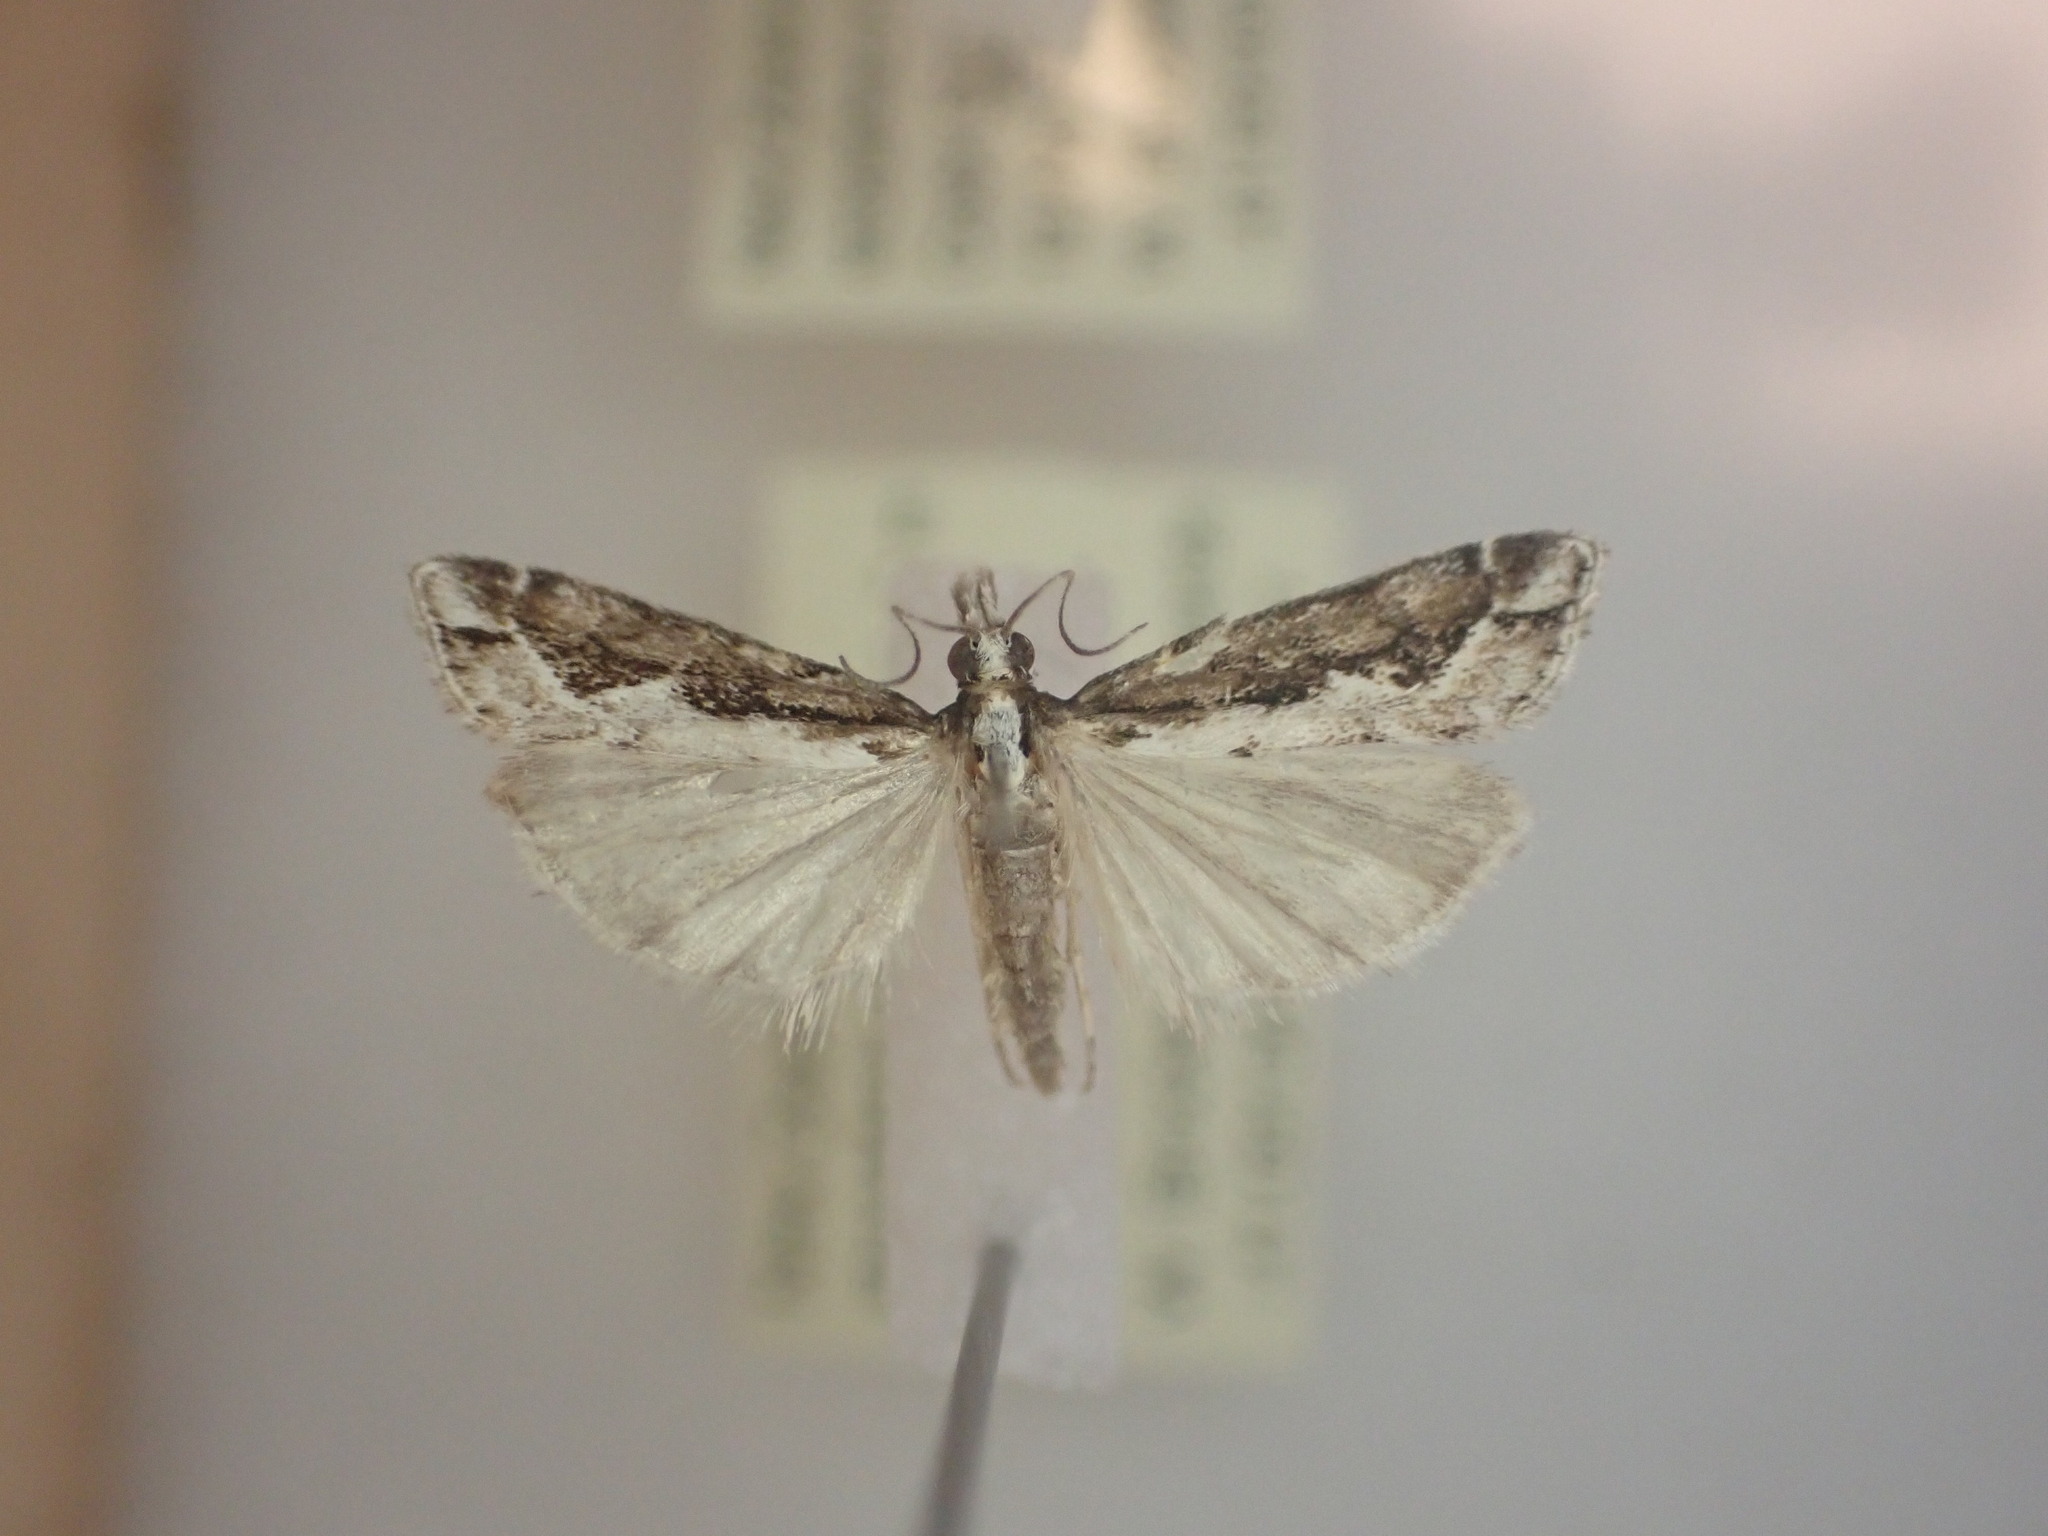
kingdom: Animalia
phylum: Arthropoda
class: Insecta
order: Lepidoptera
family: Crambidae
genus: Eudonia
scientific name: Eudonia steropaea
